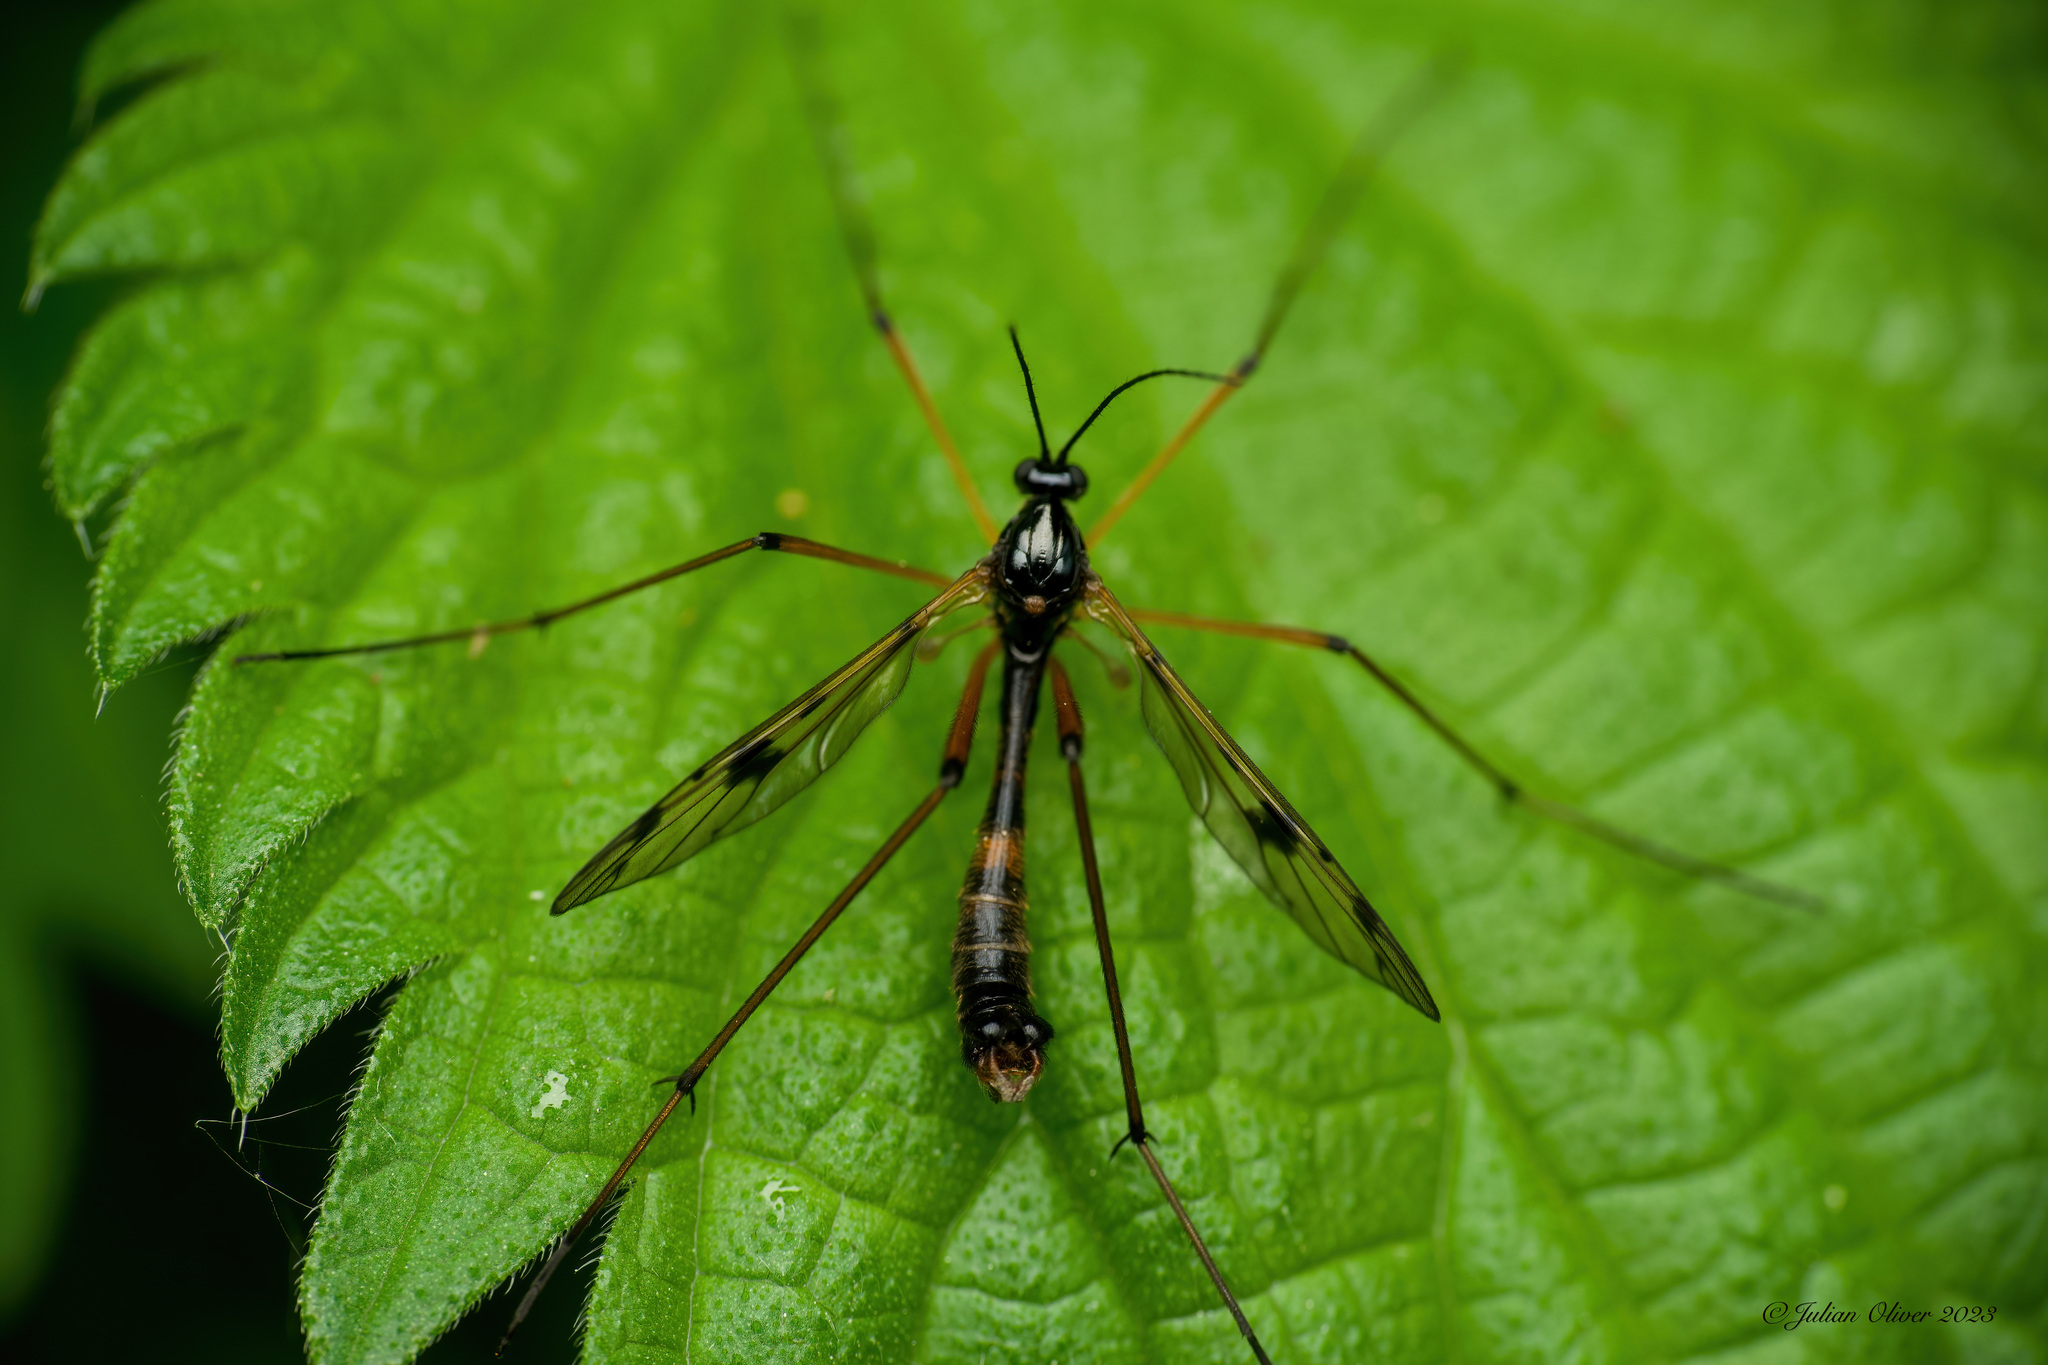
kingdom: Animalia
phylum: Arthropoda
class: Insecta
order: Diptera
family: Ptychopteridae
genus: Ptychoptera
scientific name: Ptychoptera contaminata
